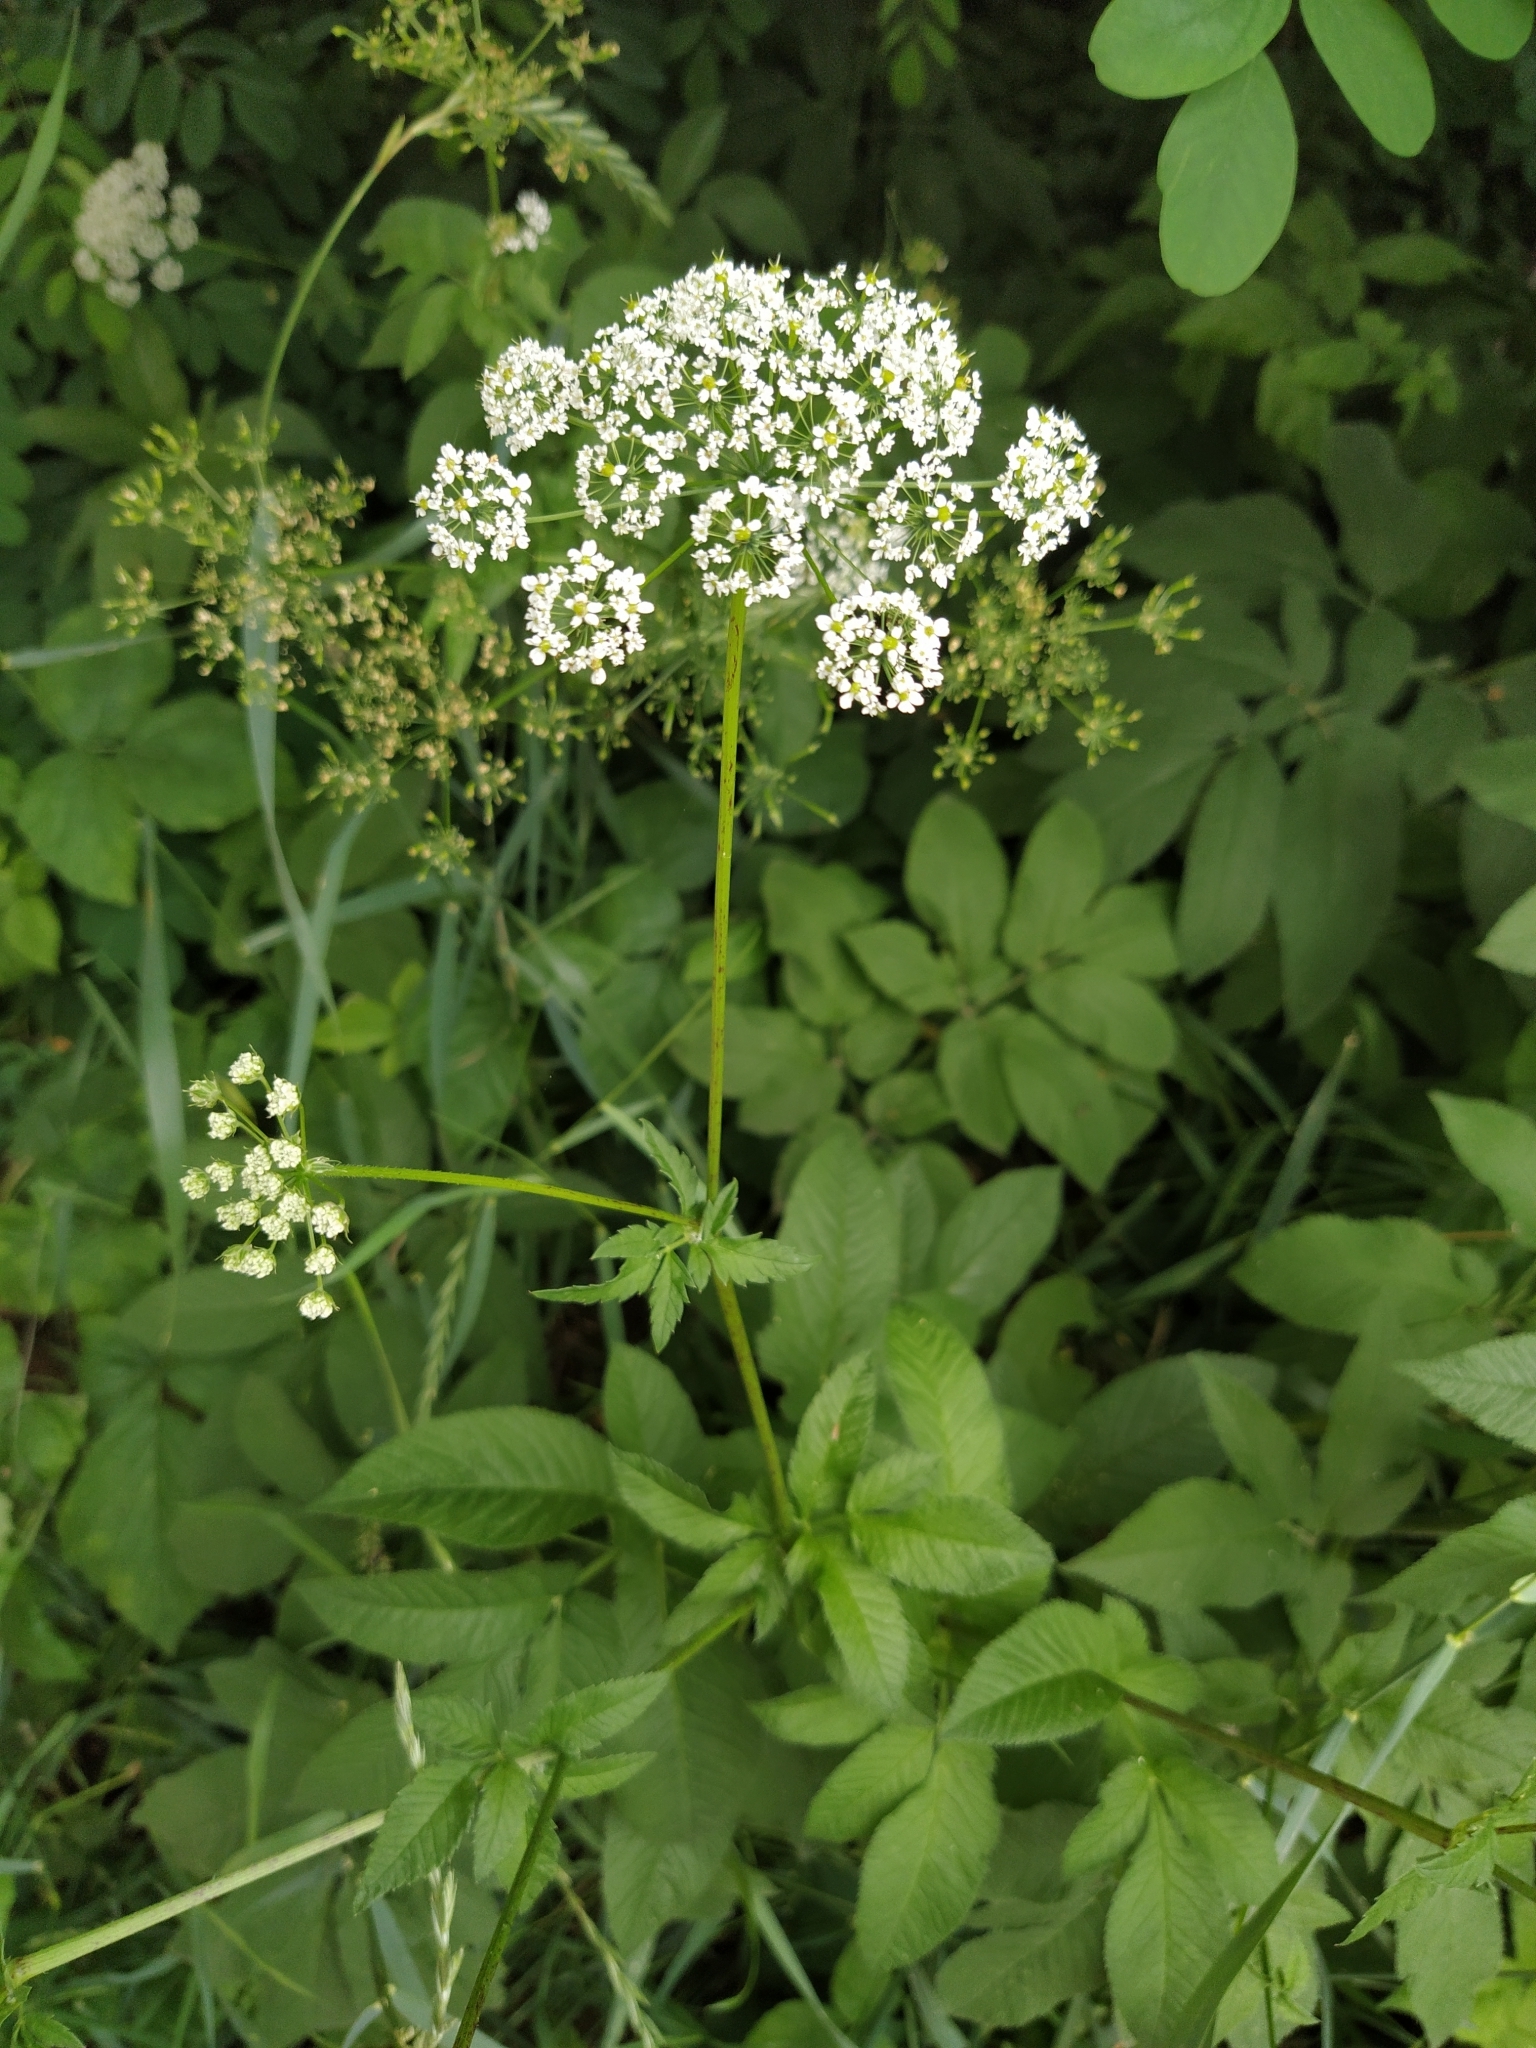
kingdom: Plantae
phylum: Tracheophyta
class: Magnoliopsida
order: Apiales
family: Apiaceae
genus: Chaerophyllum
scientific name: Chaerophyllum aromaticum
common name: Broadleaf chervil
